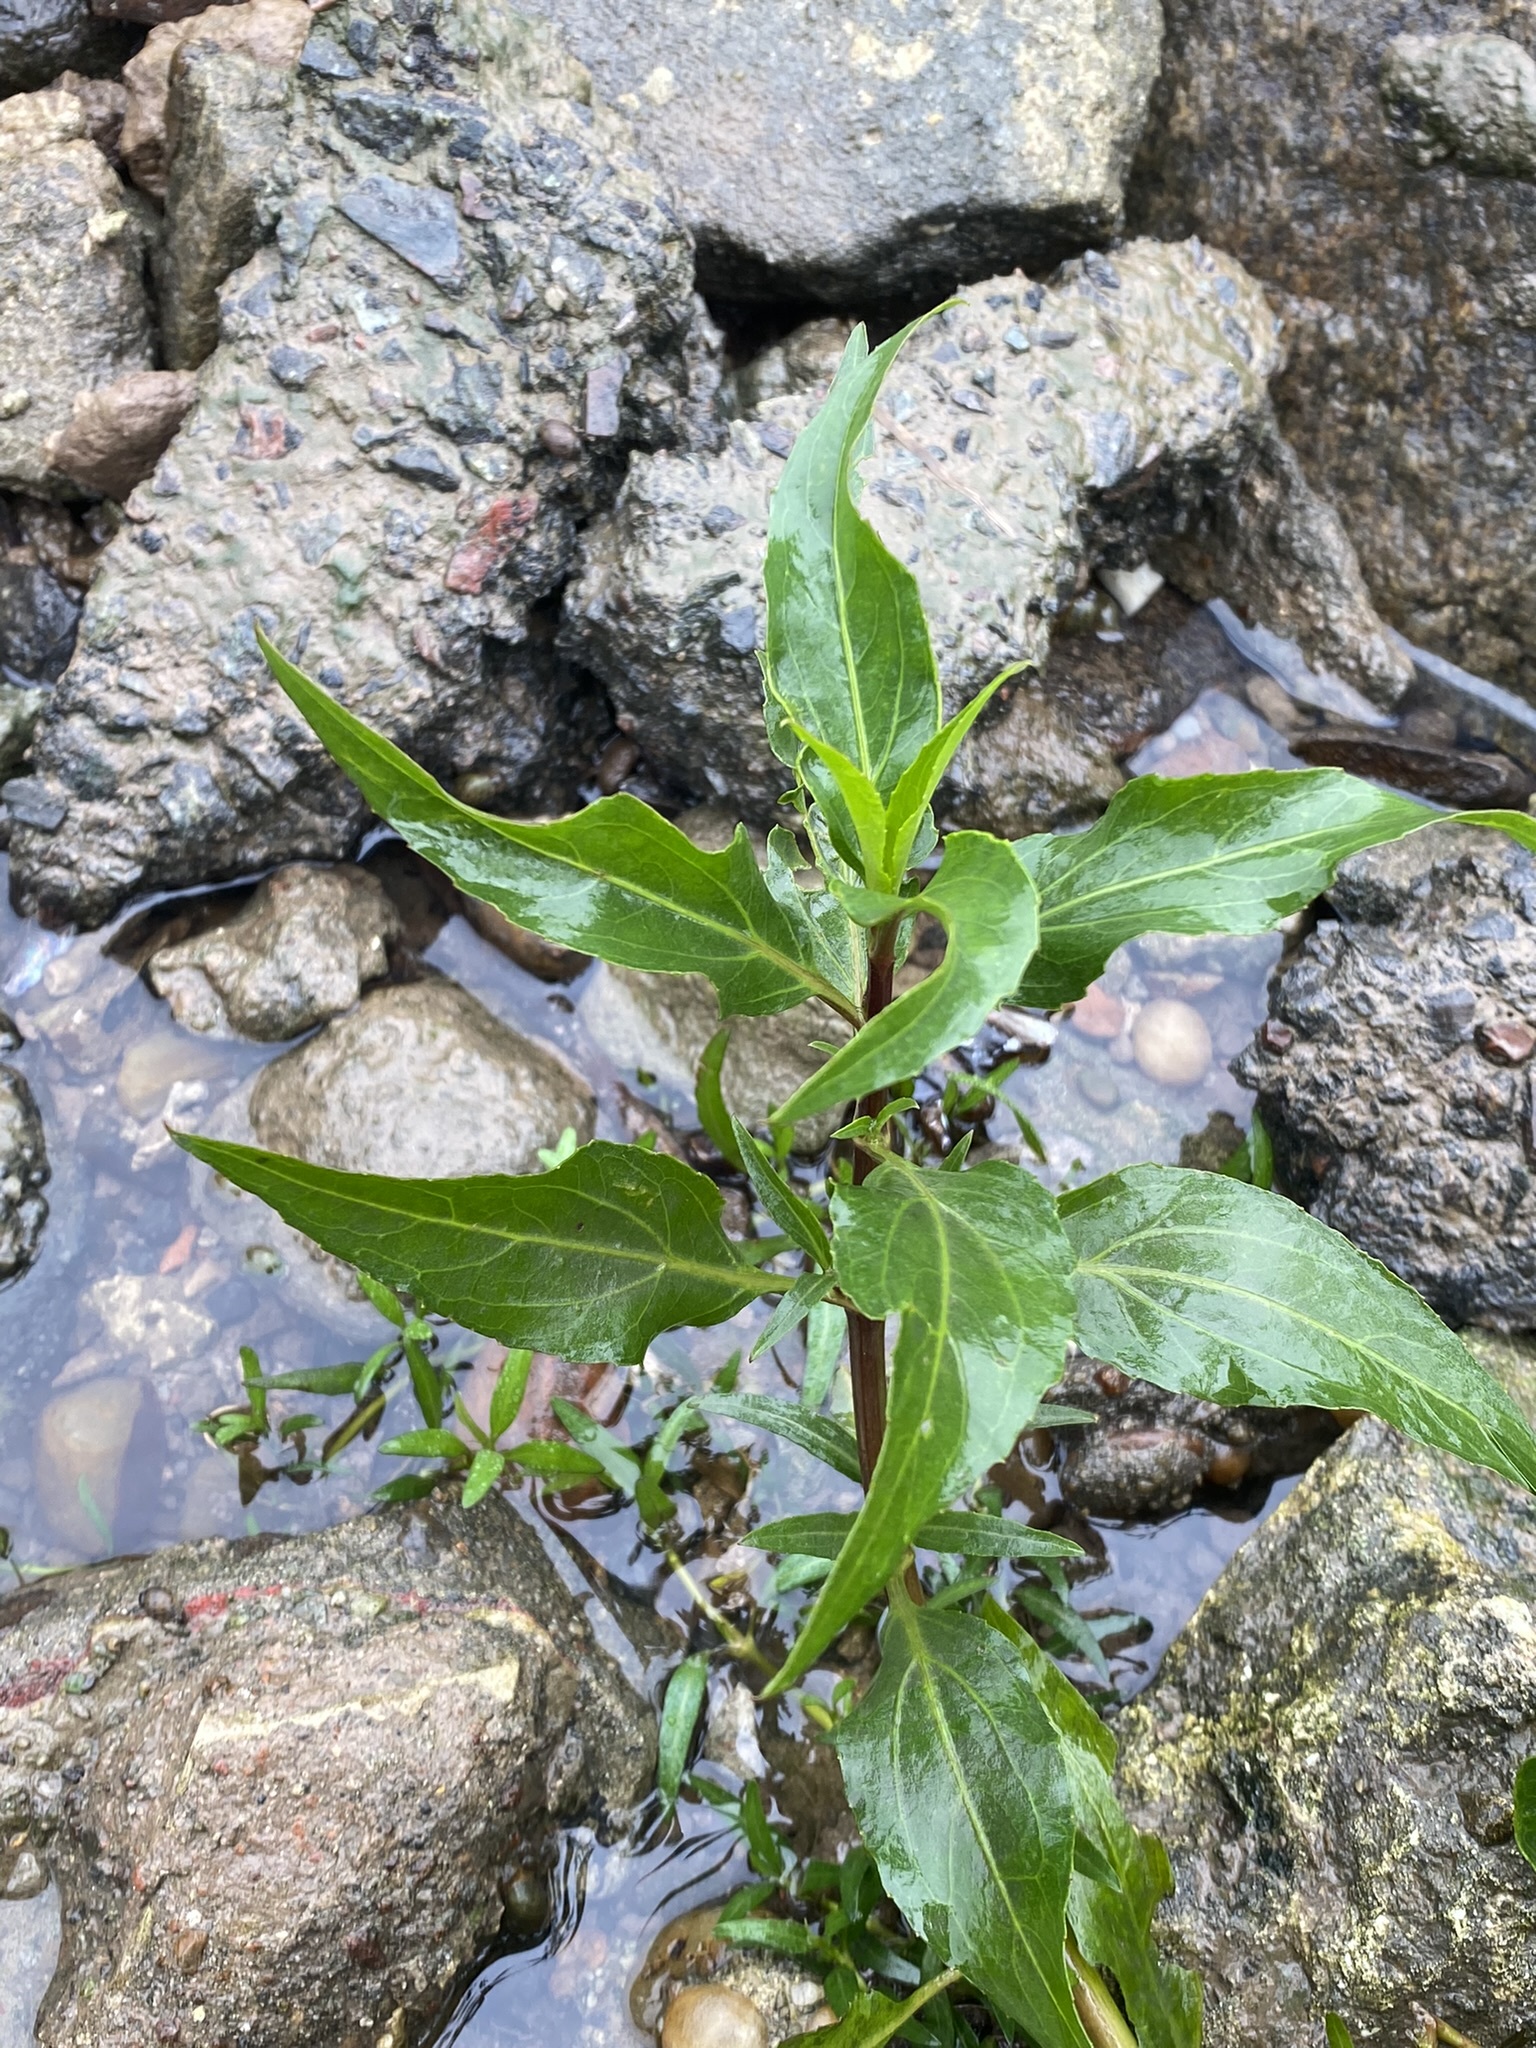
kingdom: Plantae
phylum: Tracheophyta
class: Magnoliopsida
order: Asterales
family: Asteraceae
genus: Gymnocoronis
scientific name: Gymnocoronis spilanthoides
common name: Senegal teaplant
